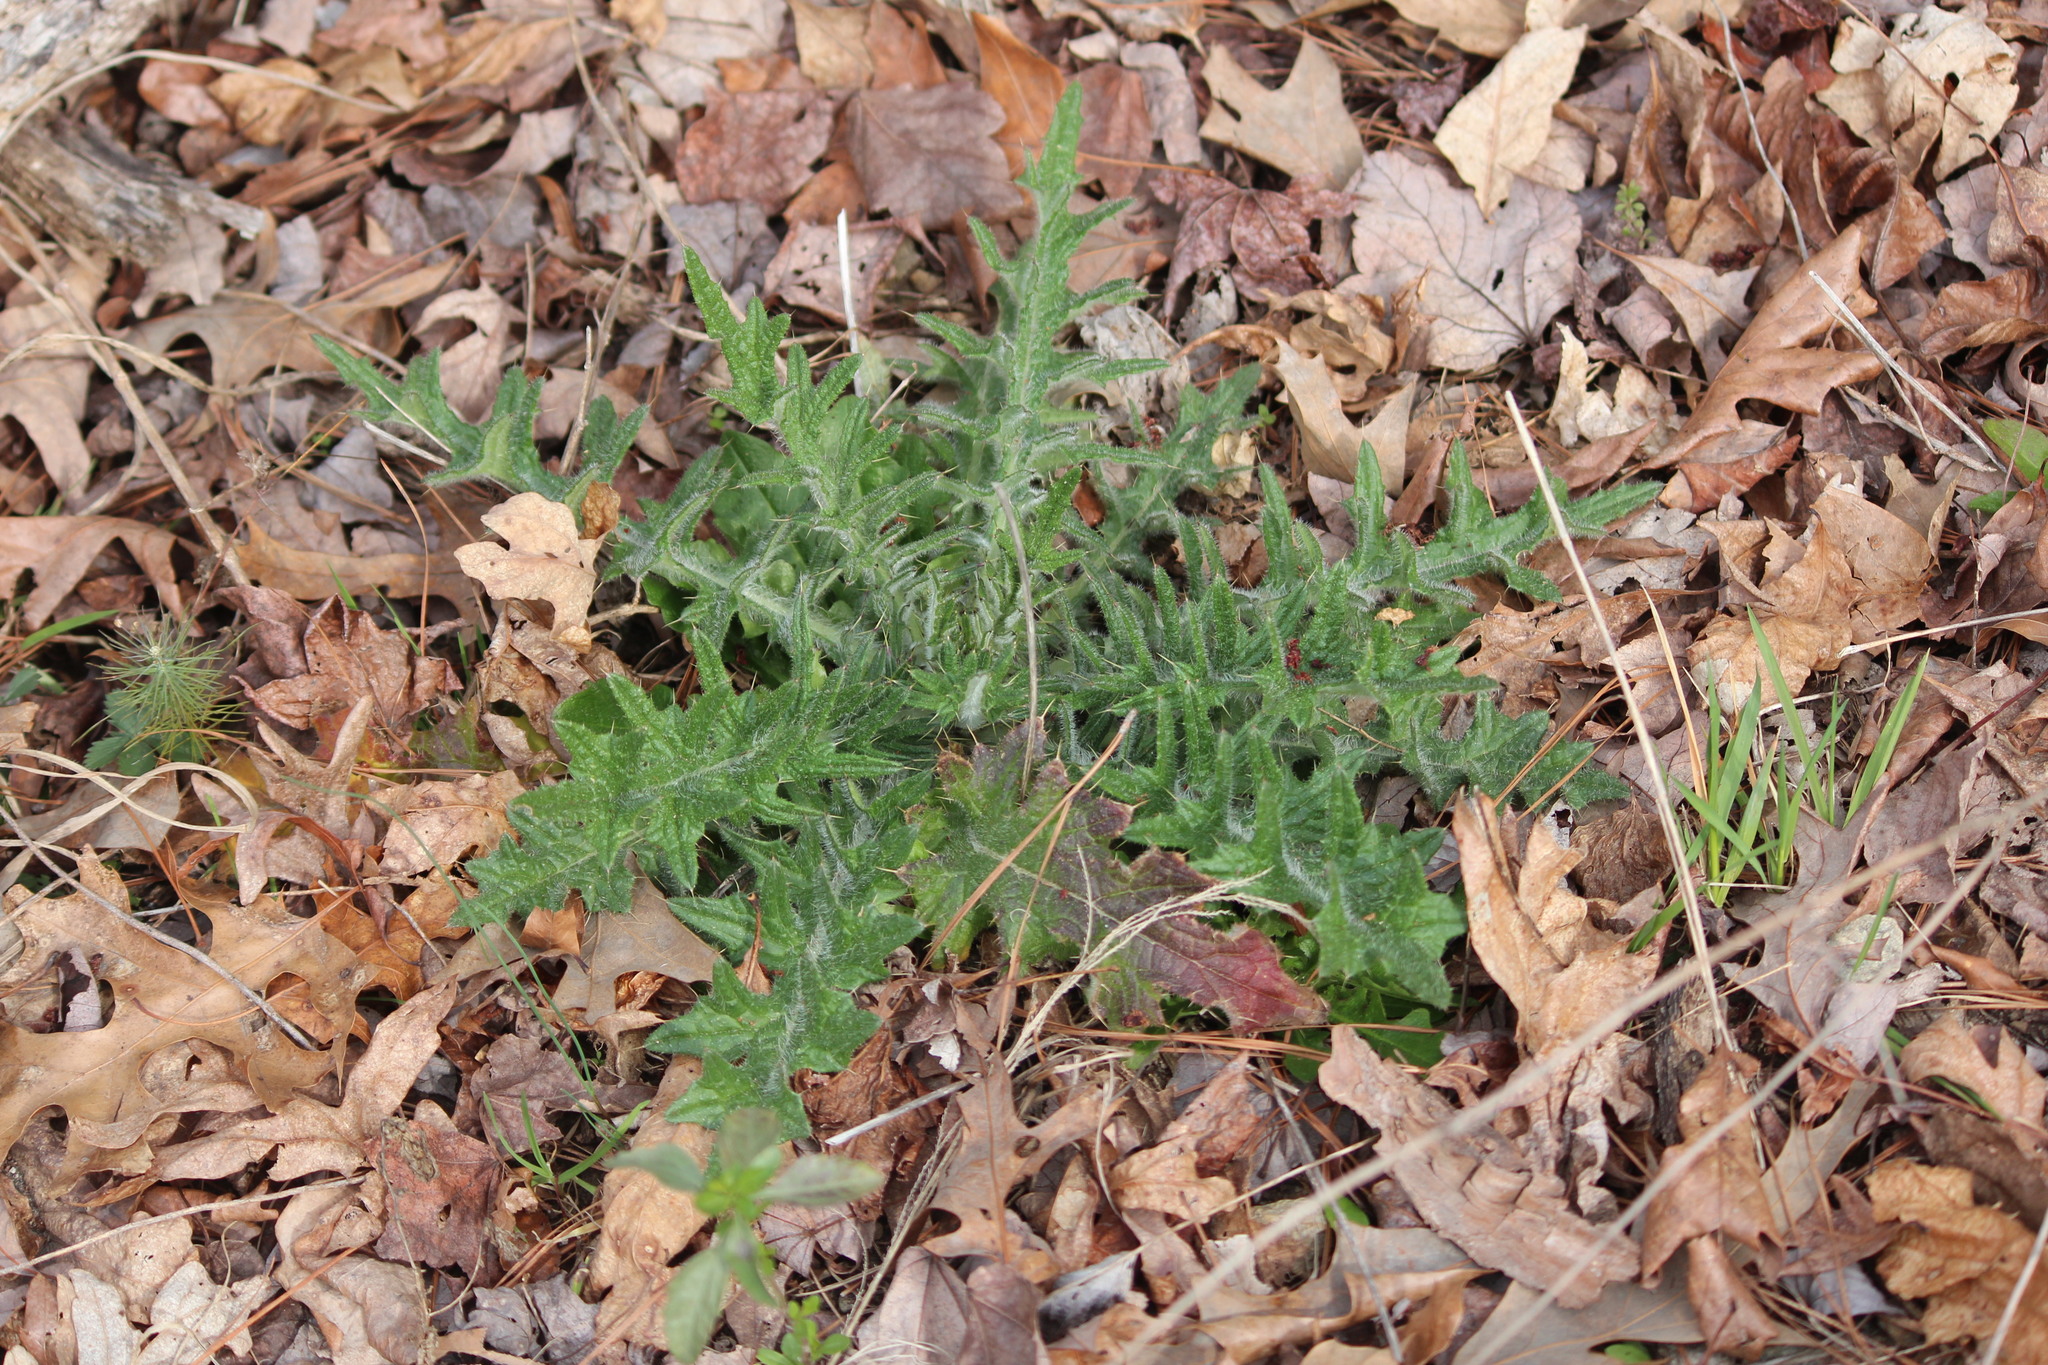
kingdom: Plantae
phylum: Tracheophyta
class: Magnoliopsida
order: Asterales
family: Asteraceae
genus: Cirsium
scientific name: Cirsium vulgare
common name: Bull thistle
